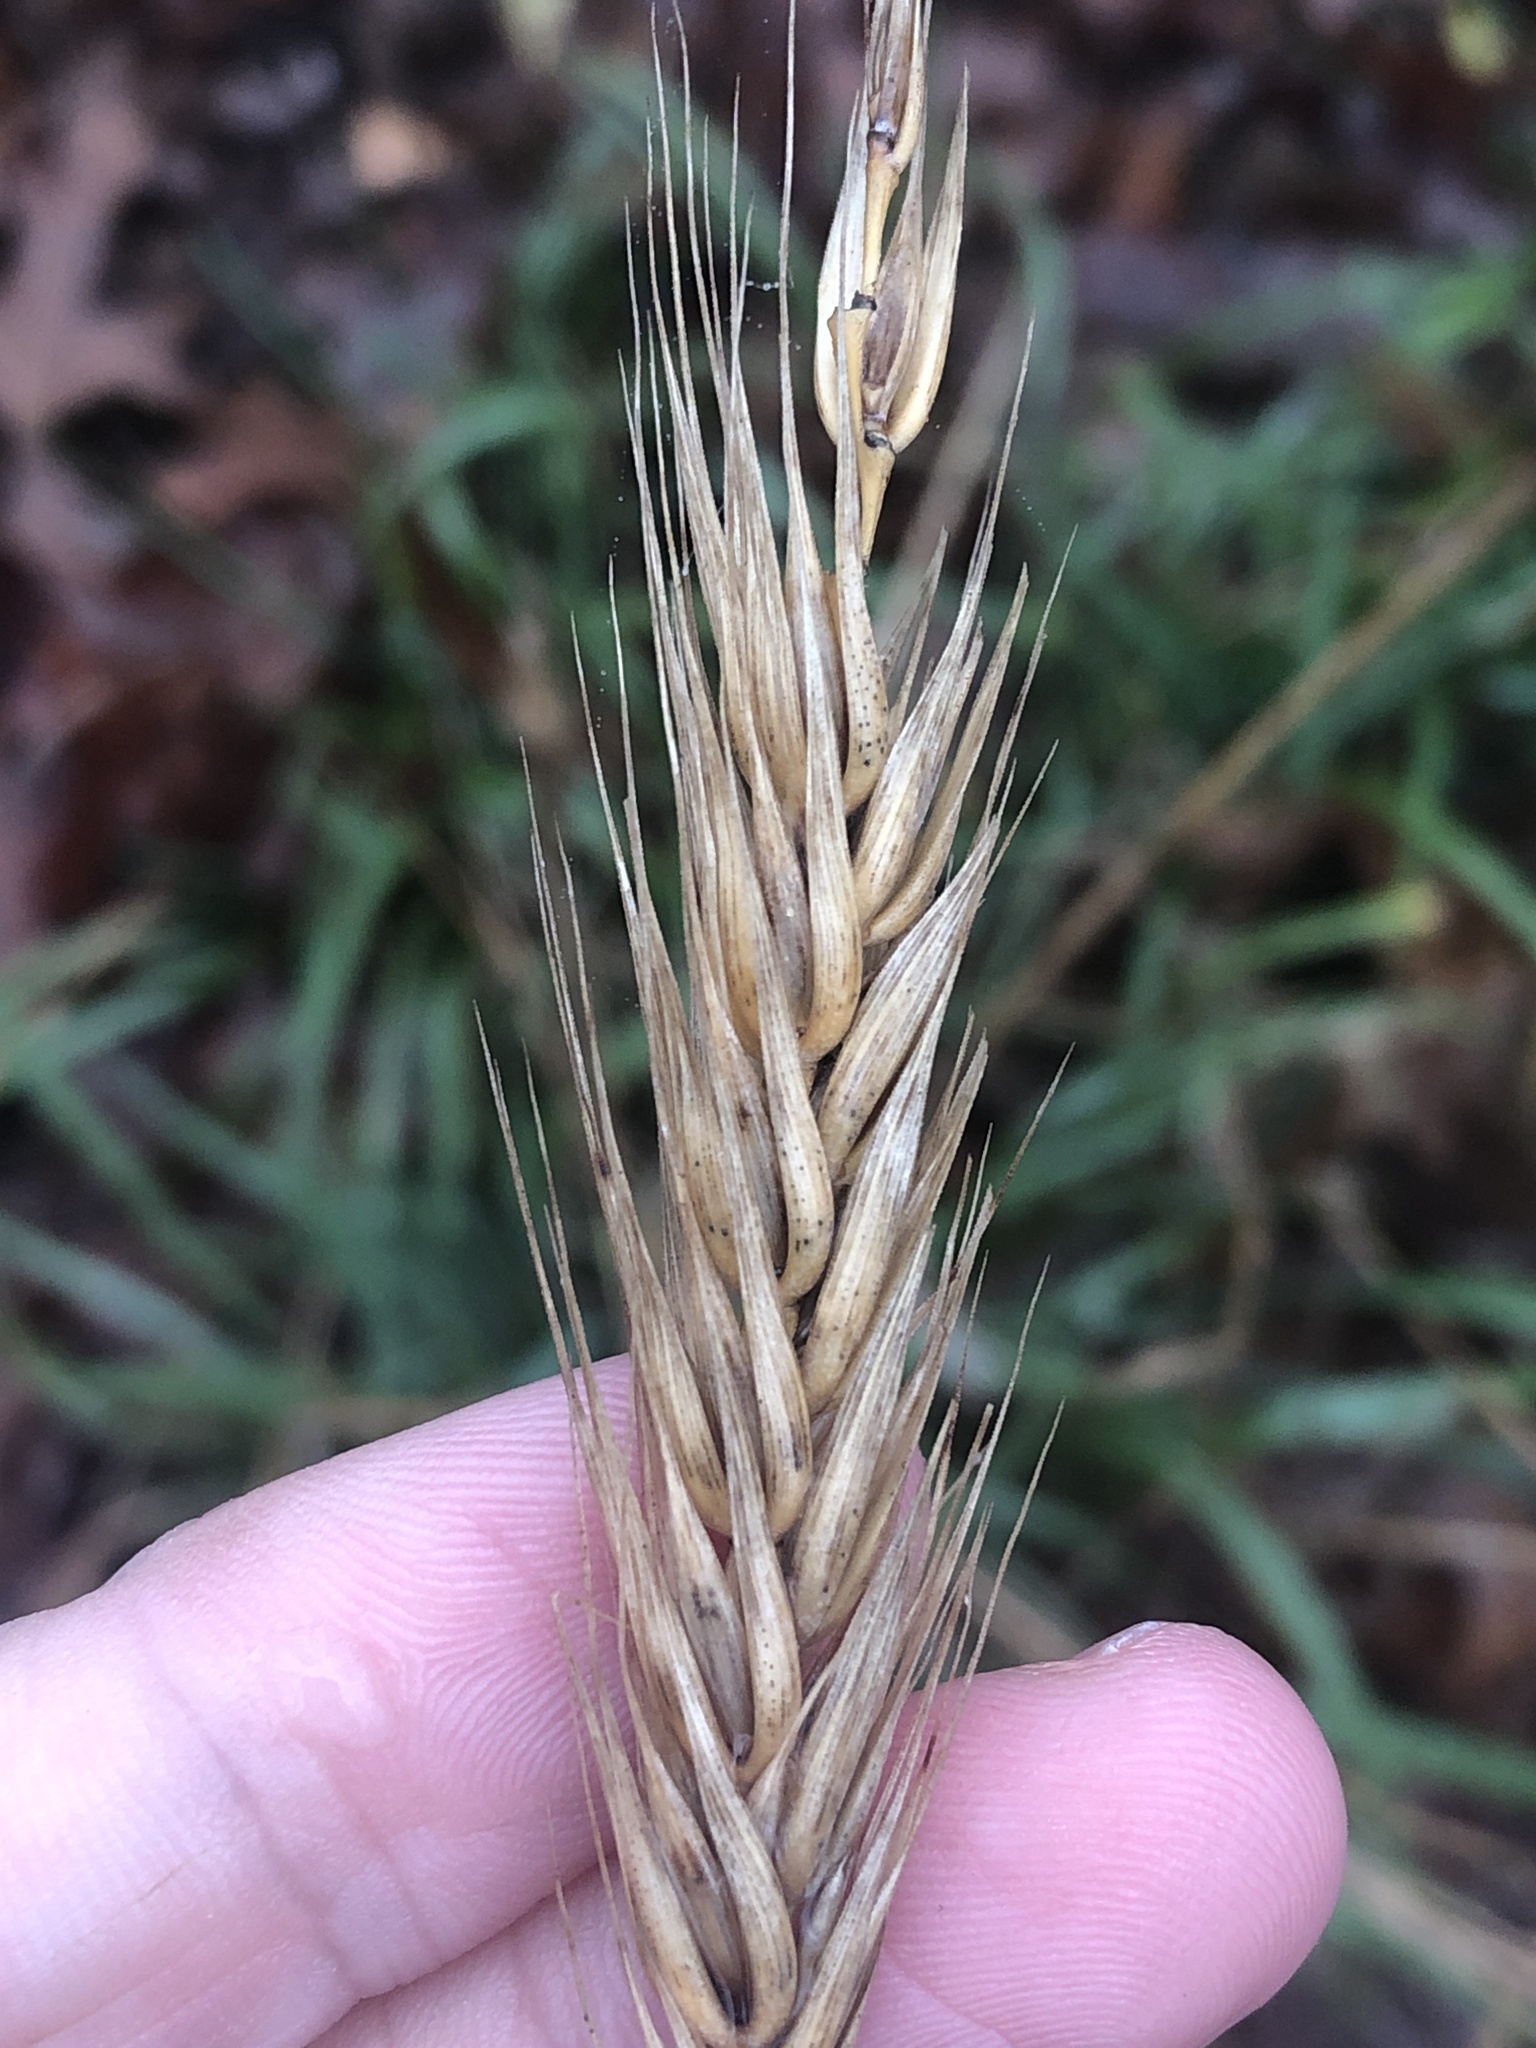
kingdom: Plantae
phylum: Tracheophyta
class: Liliopsida
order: Poales
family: Poaceae
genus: Elymus
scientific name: Elymus virginicus
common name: Common eastern wildrye
